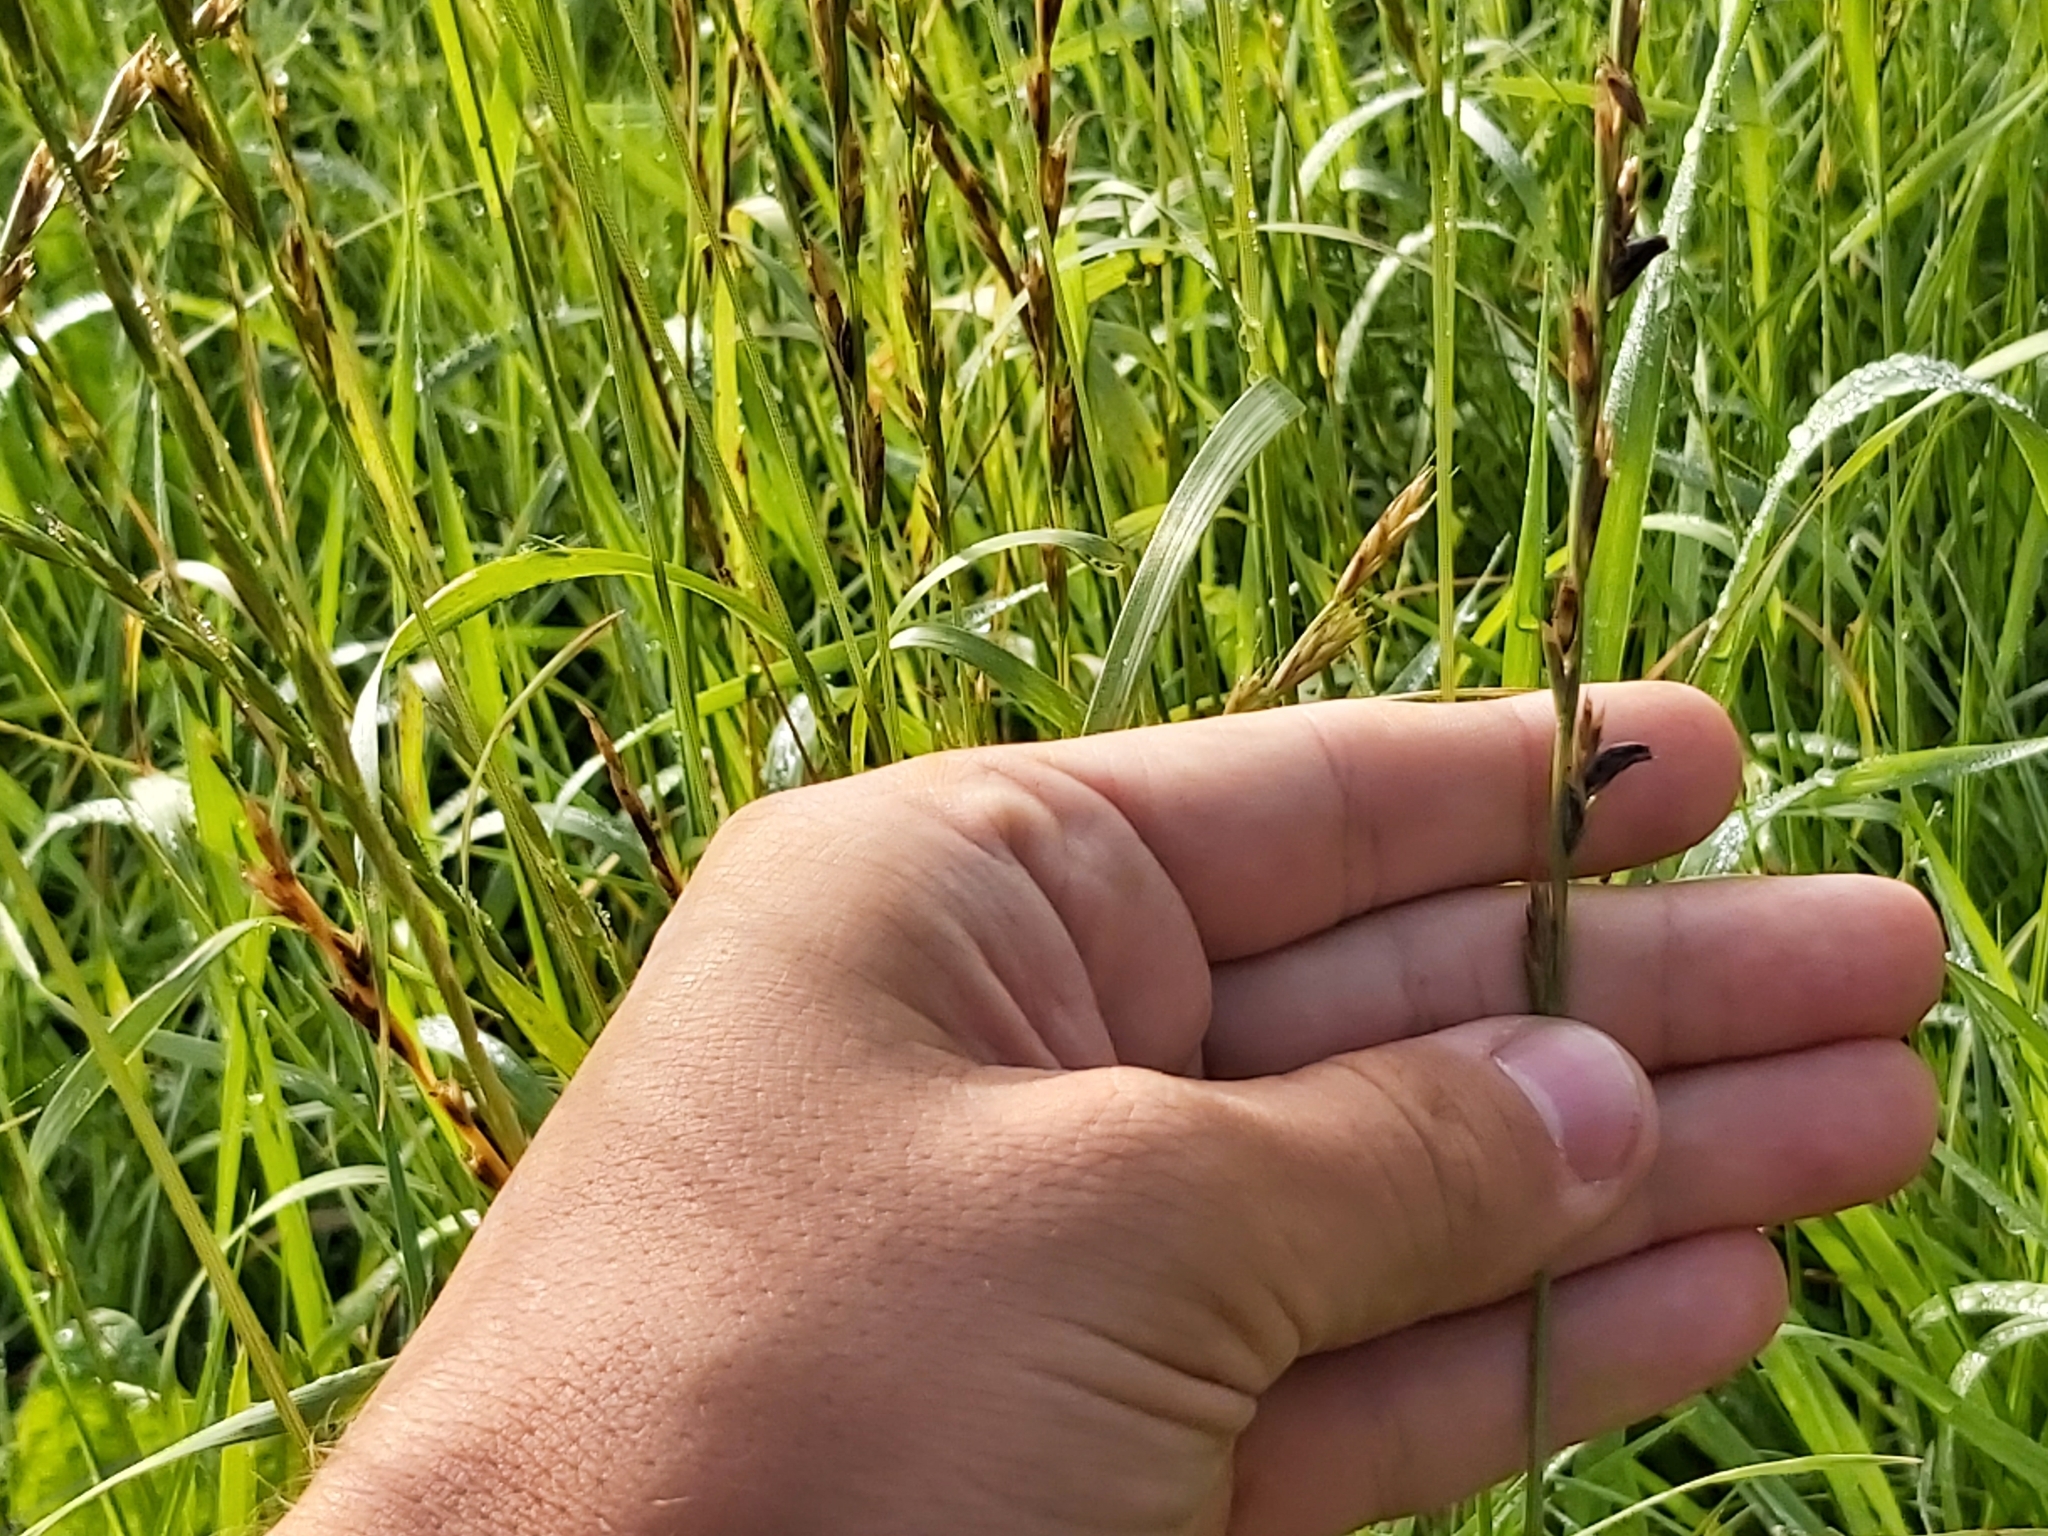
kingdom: Fungi
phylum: Ascomycota
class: Sordariomycetes
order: Hypocreales
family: Clavicipitaceae
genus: Claviceps
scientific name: Claviceps purpurea
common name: Rye ergot
